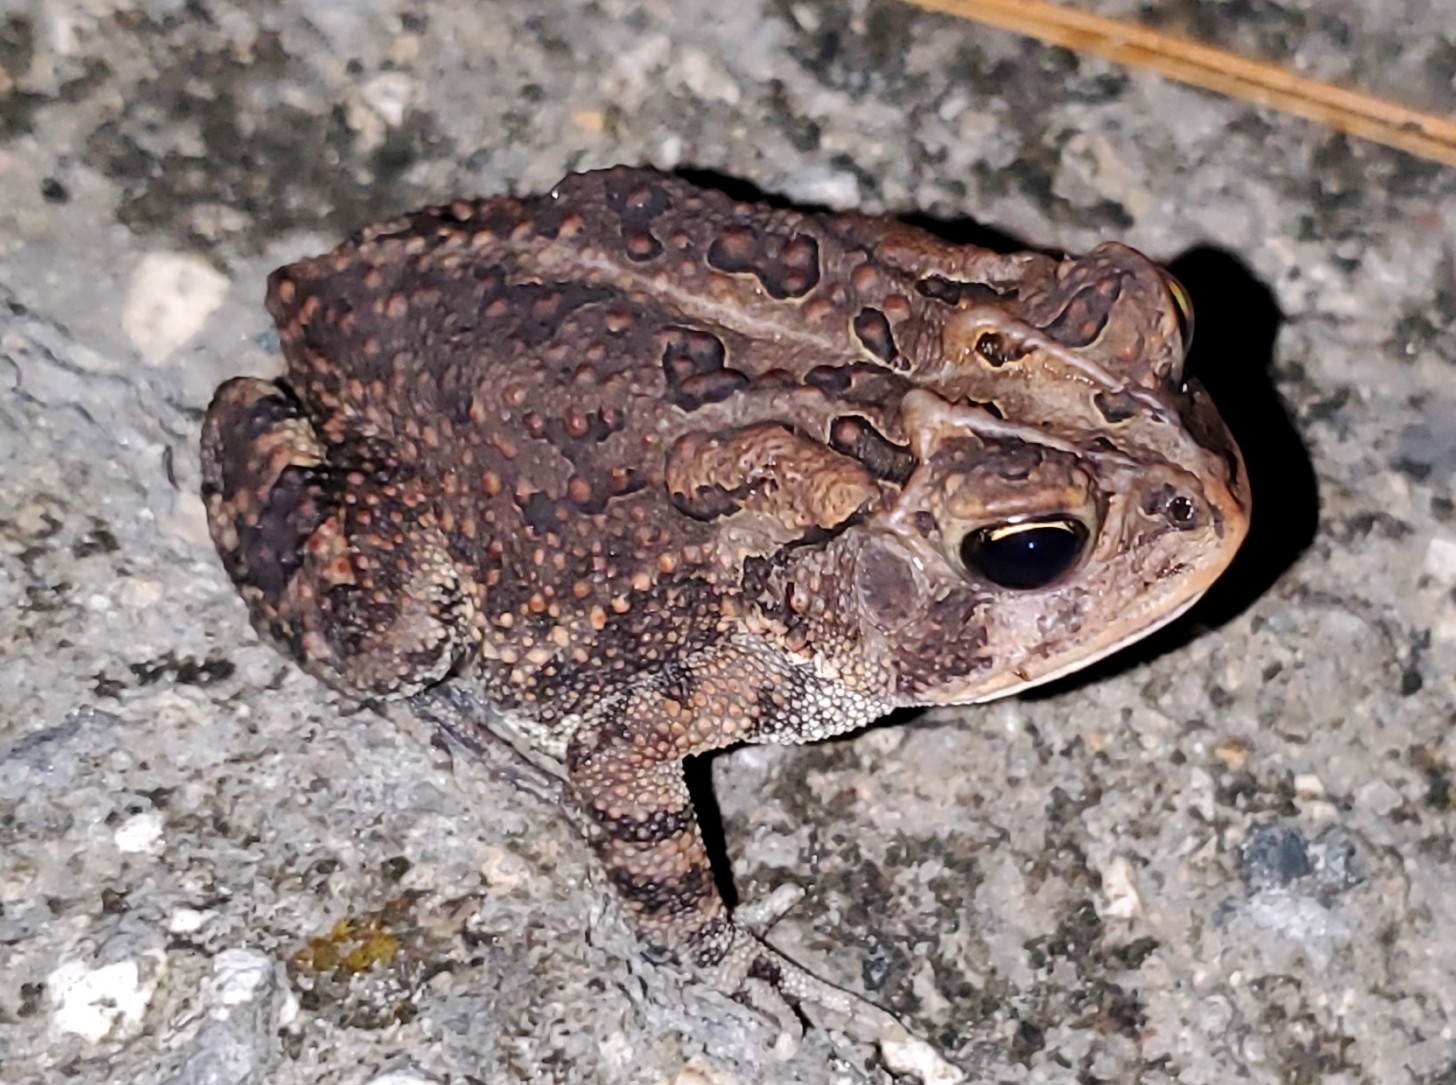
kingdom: Animalia
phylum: Chordata
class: Amphibia
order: Anura
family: Bufonidae
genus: Anaxyrus
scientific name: Anaxyrus terrestris
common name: Southern toad
